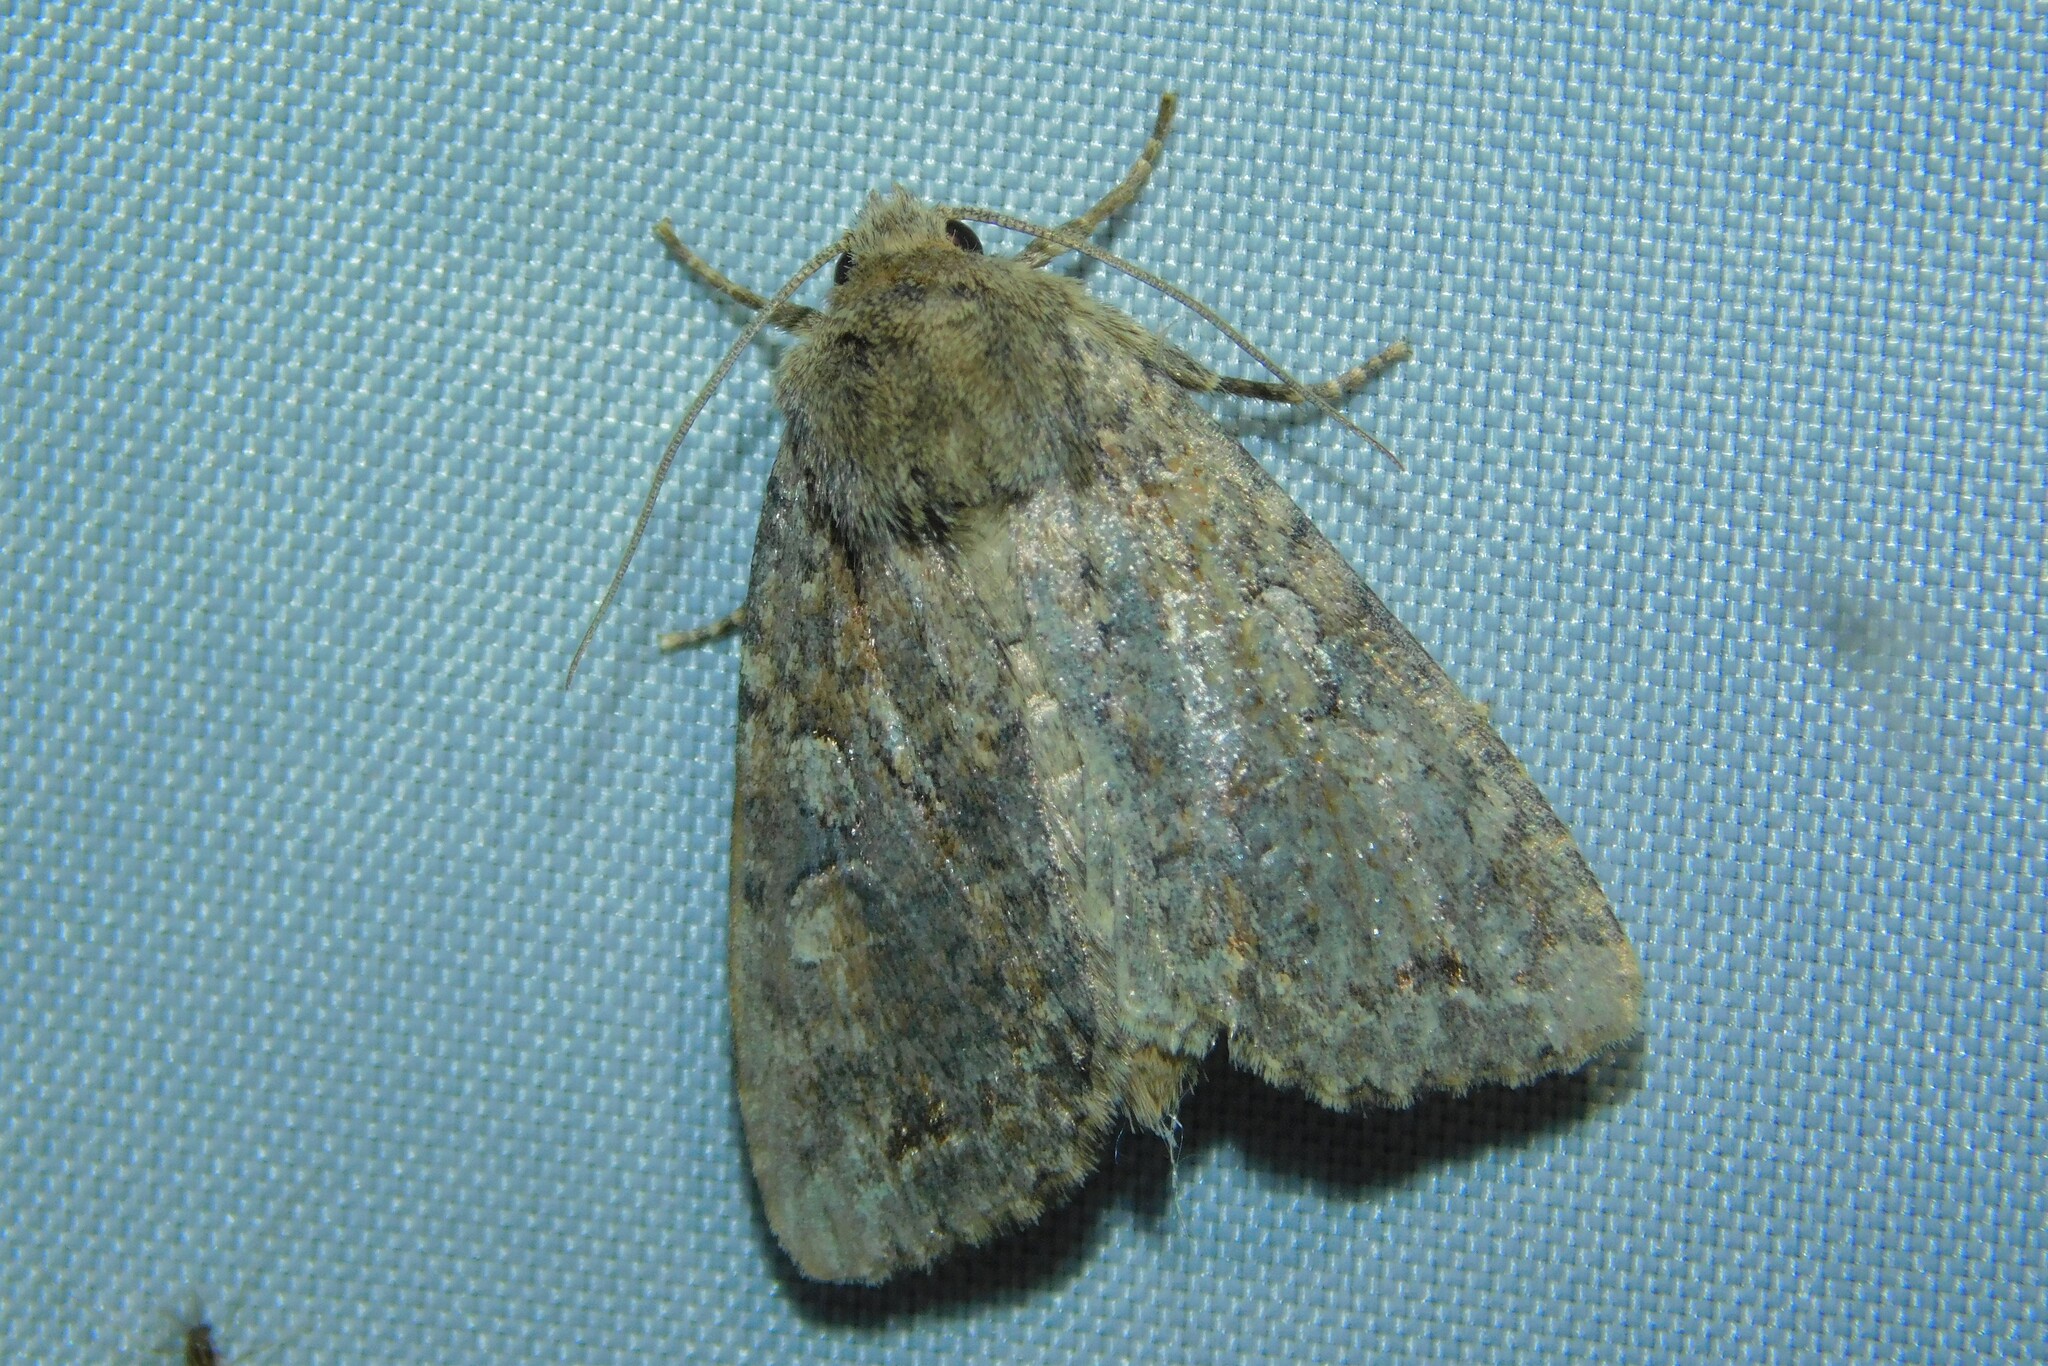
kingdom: Animalia
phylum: Arthropoda
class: Insecta
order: Lepidoptera
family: Noctuidae
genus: Apterogenum
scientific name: Apterogenum ypsillon
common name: Dingy shears
